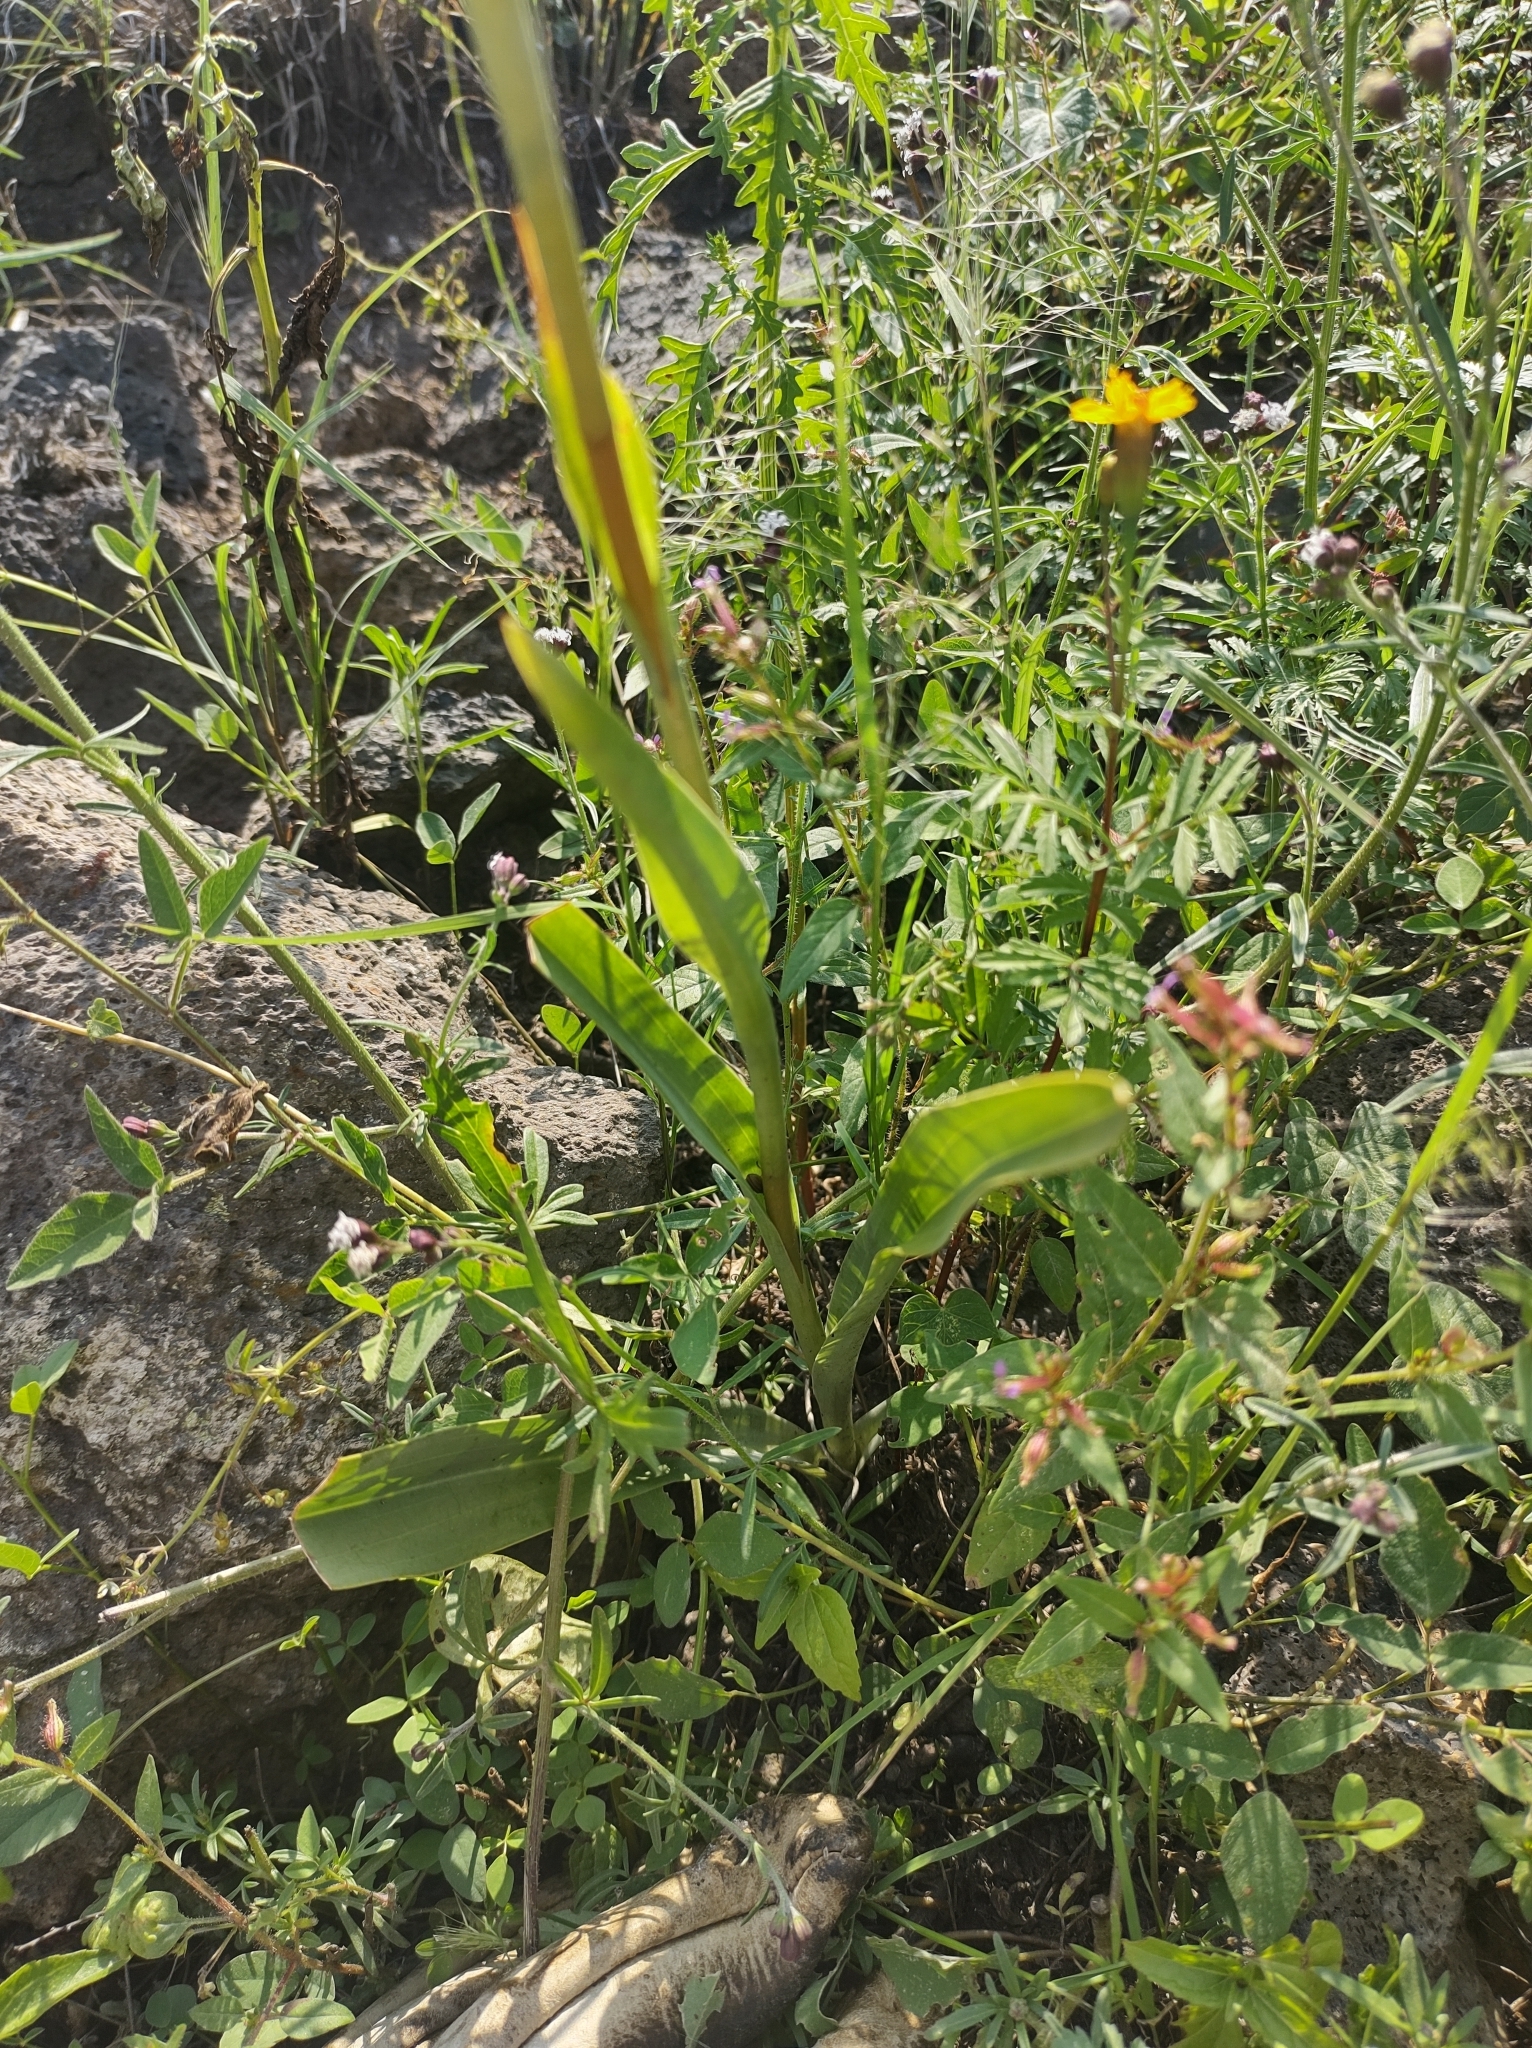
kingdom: Plantae
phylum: Tracheophyta
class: Liliopsida
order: Asparagales
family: Orchidaceae
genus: Dichromanthus
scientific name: Dichromanthus cinnabarinus
